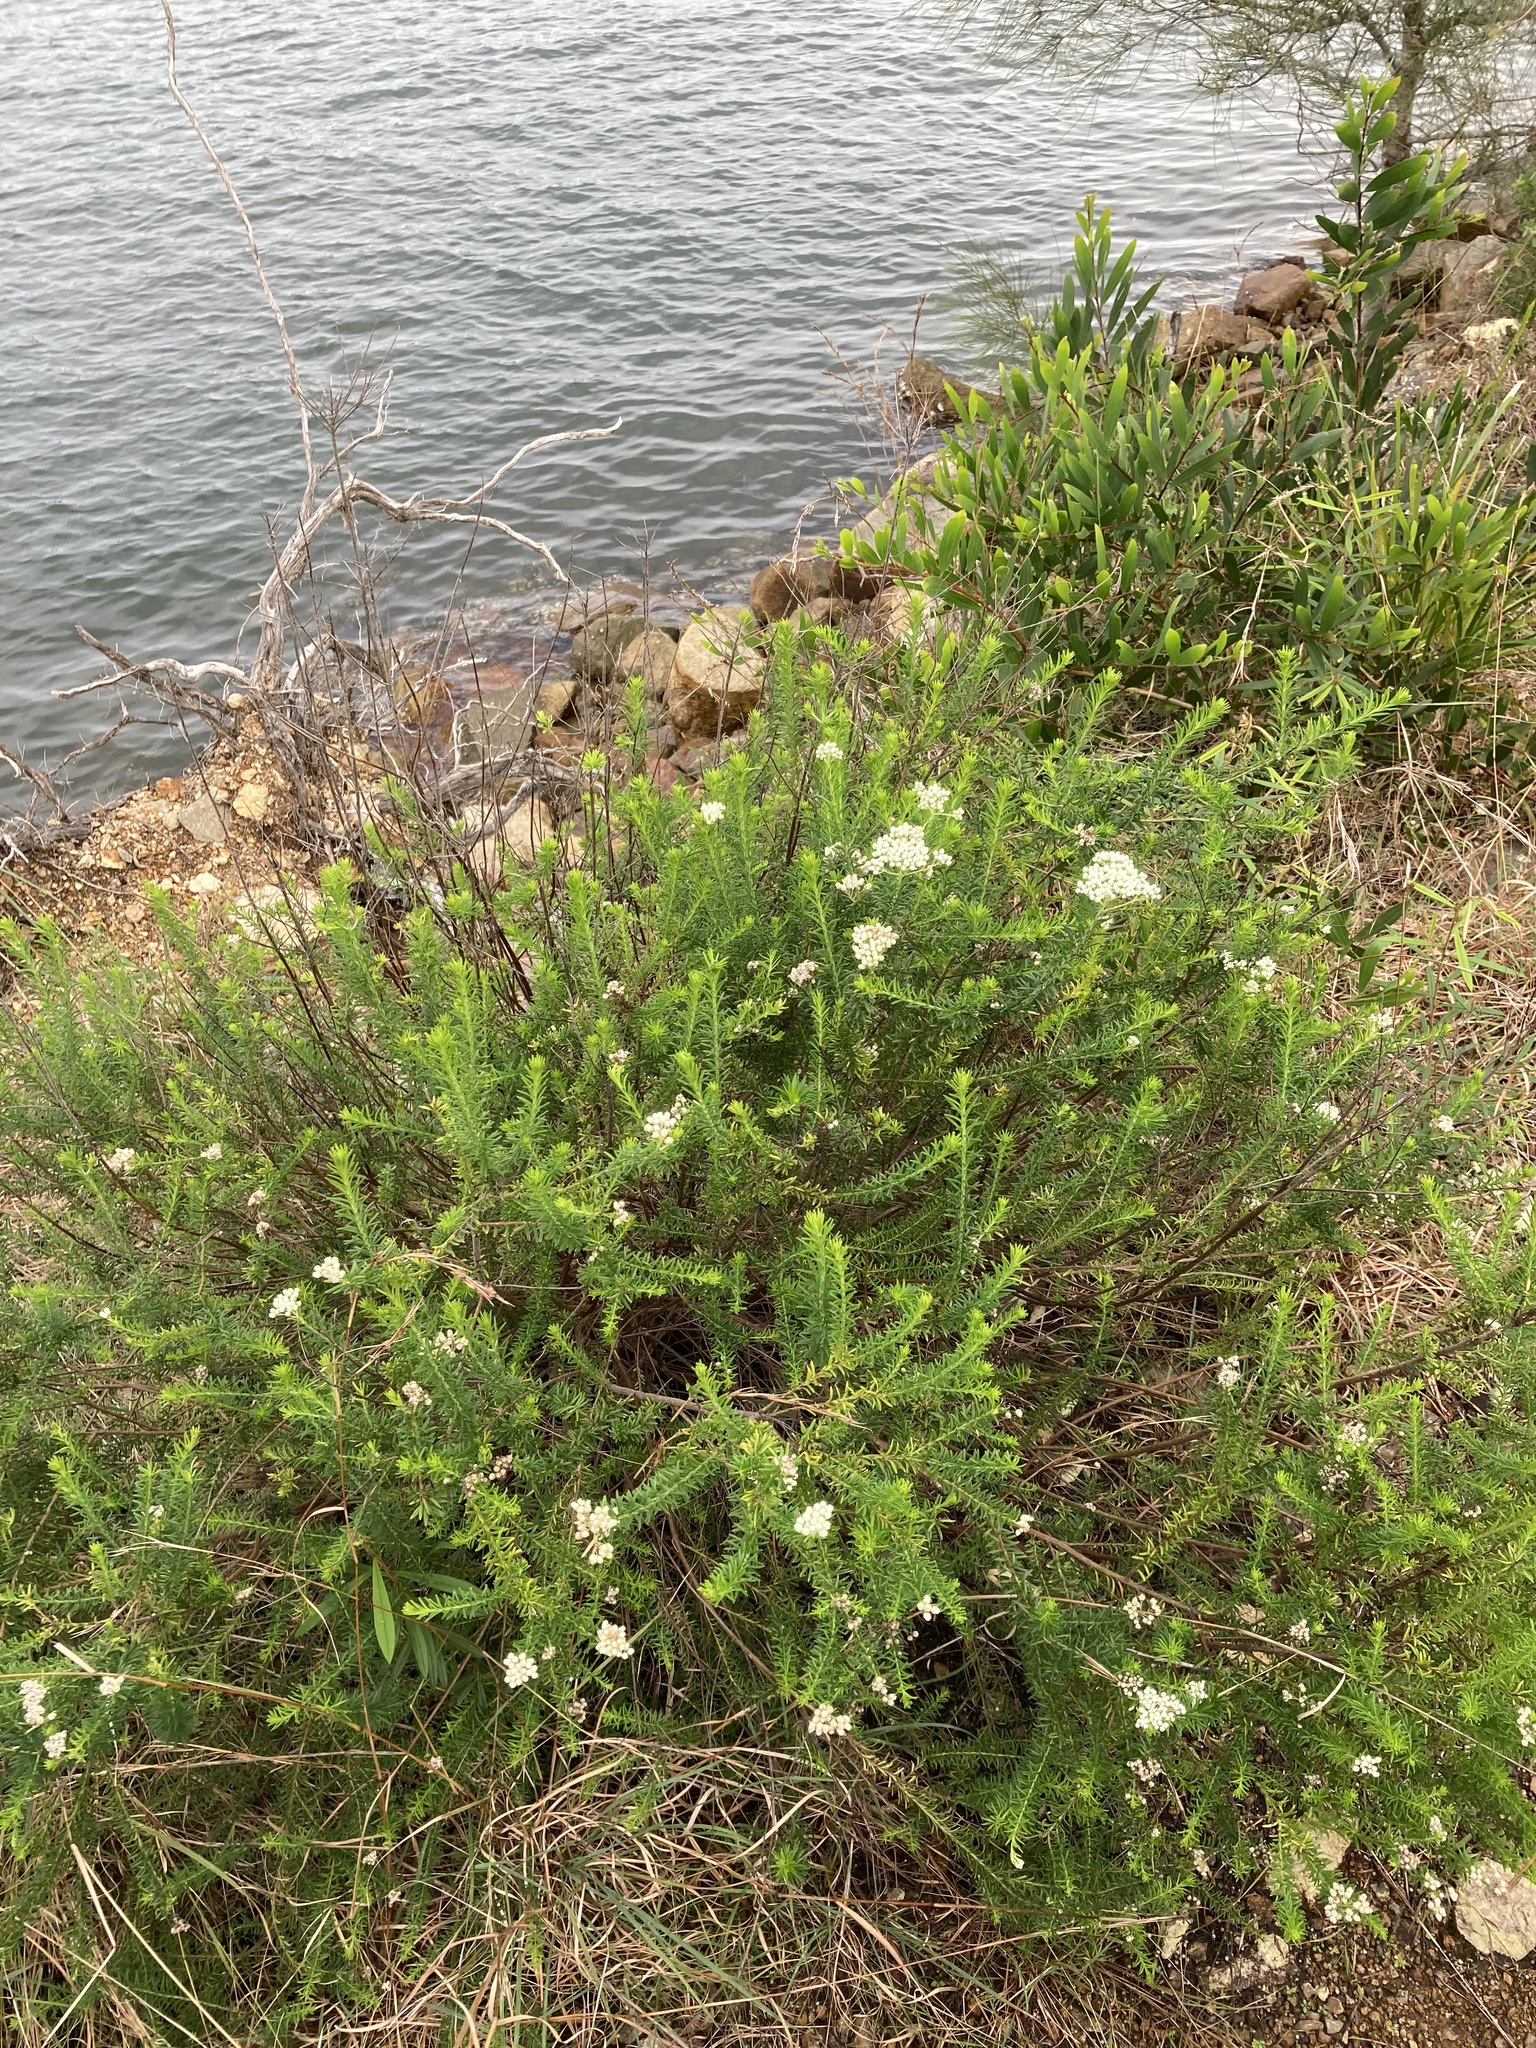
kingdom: Plantae
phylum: Tracheophyta
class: Magnoliopsida
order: Asterales
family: Asteraceae
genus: Ozothamnus
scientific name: Ozothamnus diosmifolius
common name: White-dogwood
